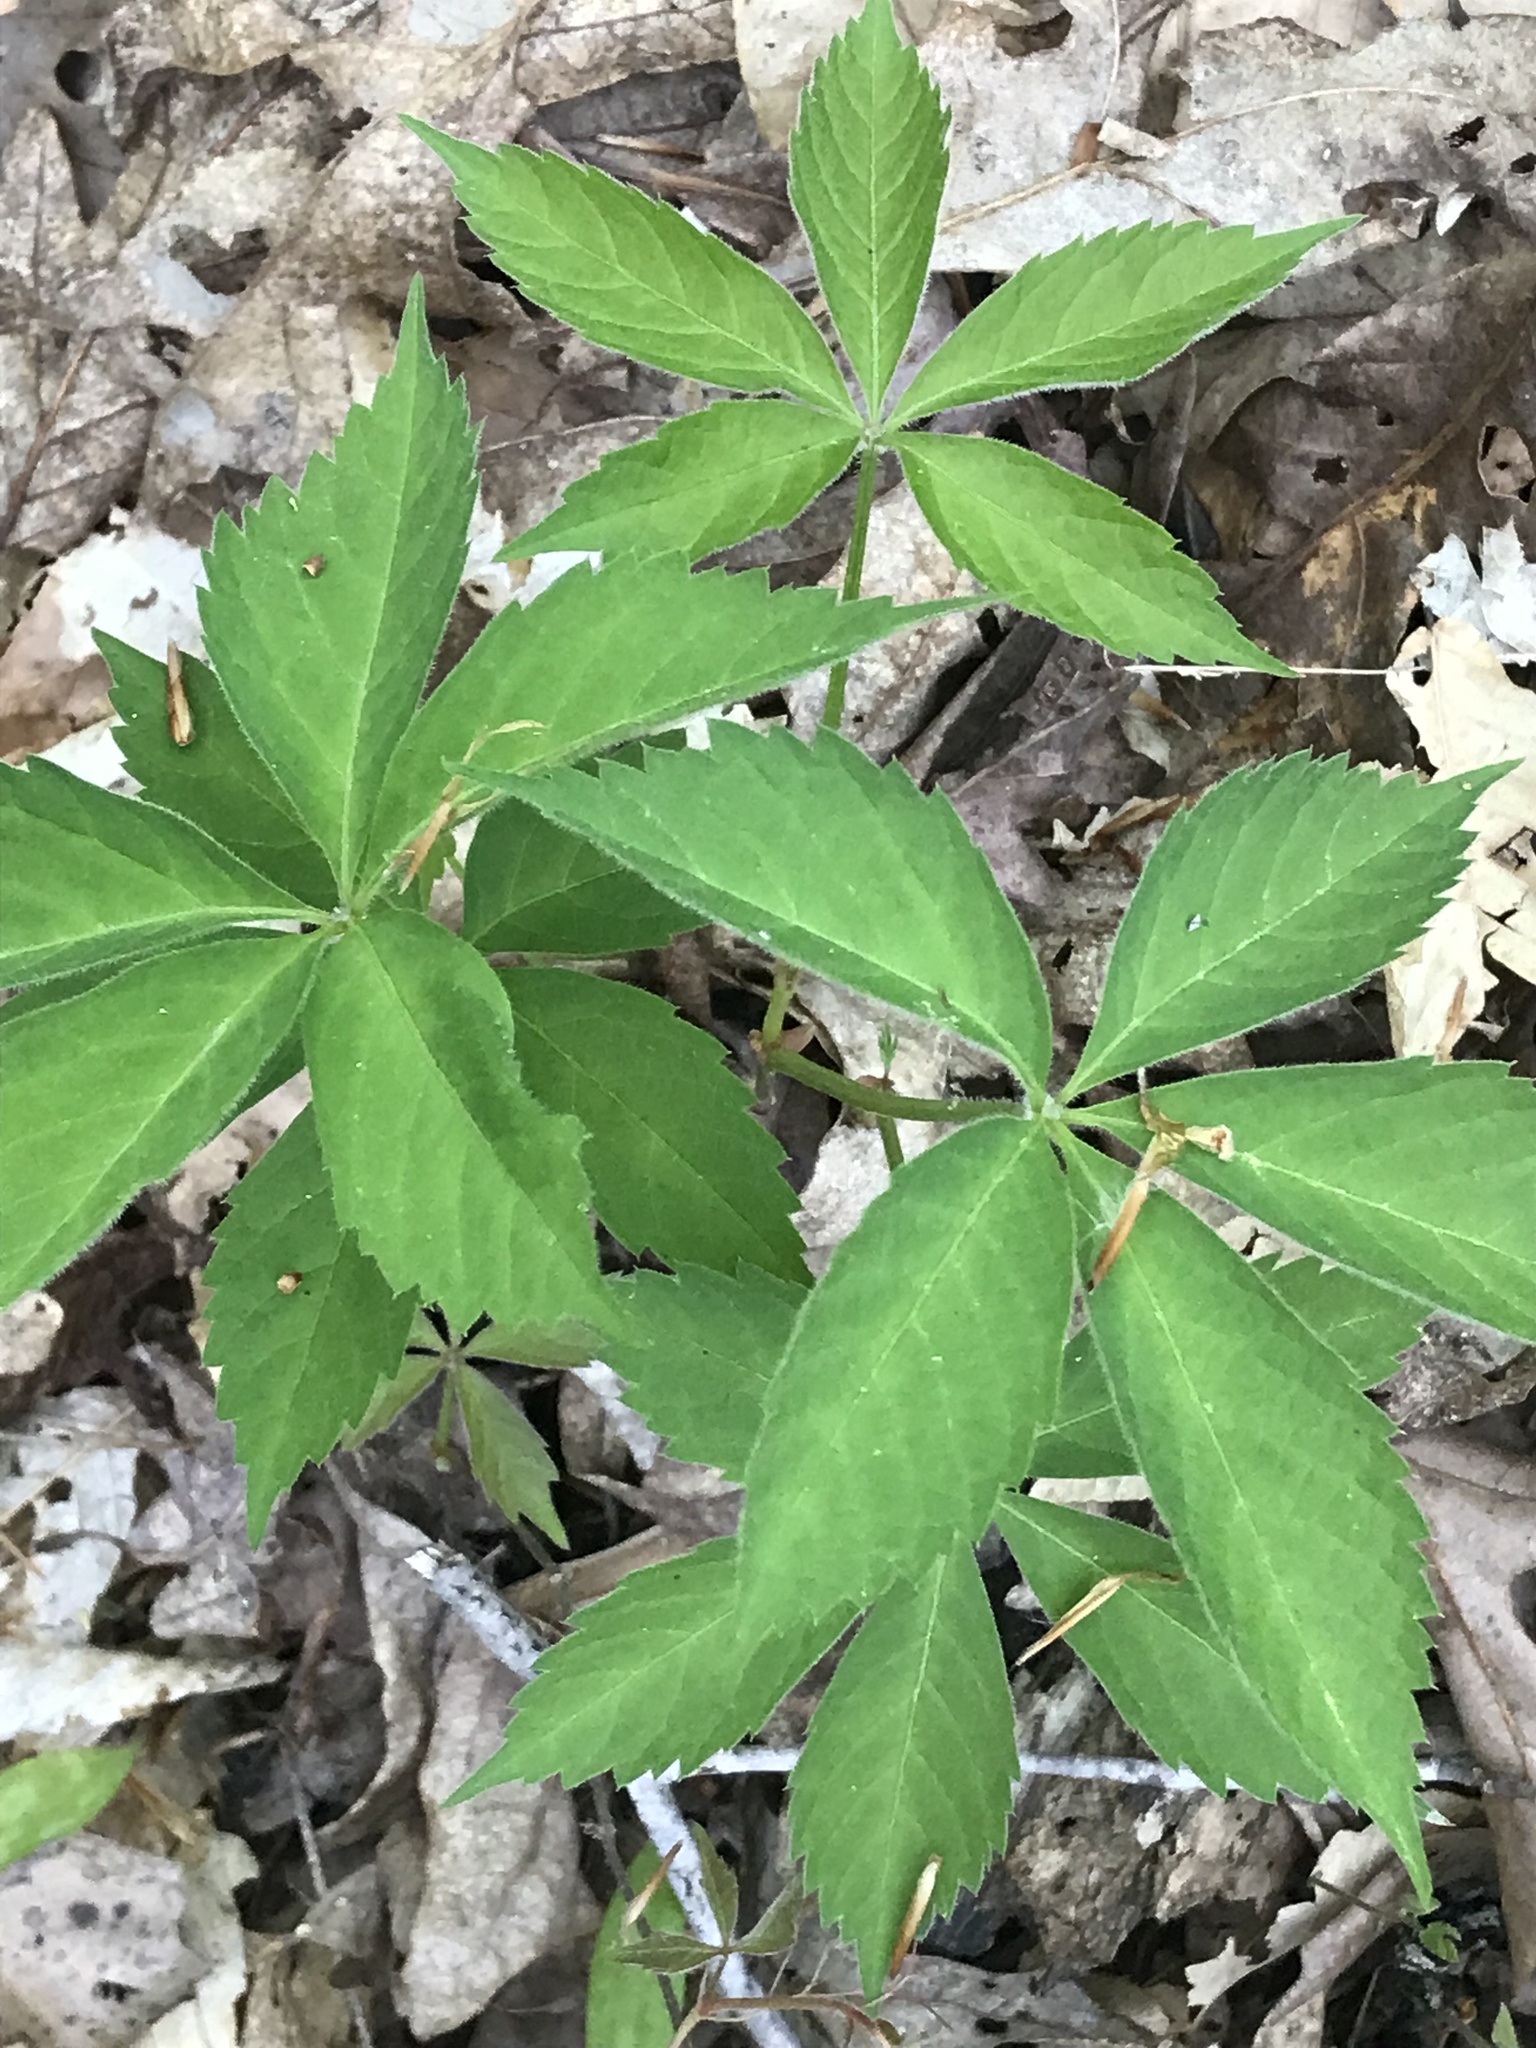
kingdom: Plantae
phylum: Tracheophyta
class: Magnoliopsida
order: Vitales
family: Vitaceae
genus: Parthenocissus
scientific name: Parthenocissus quinquefolia
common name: Virginia-creeper
